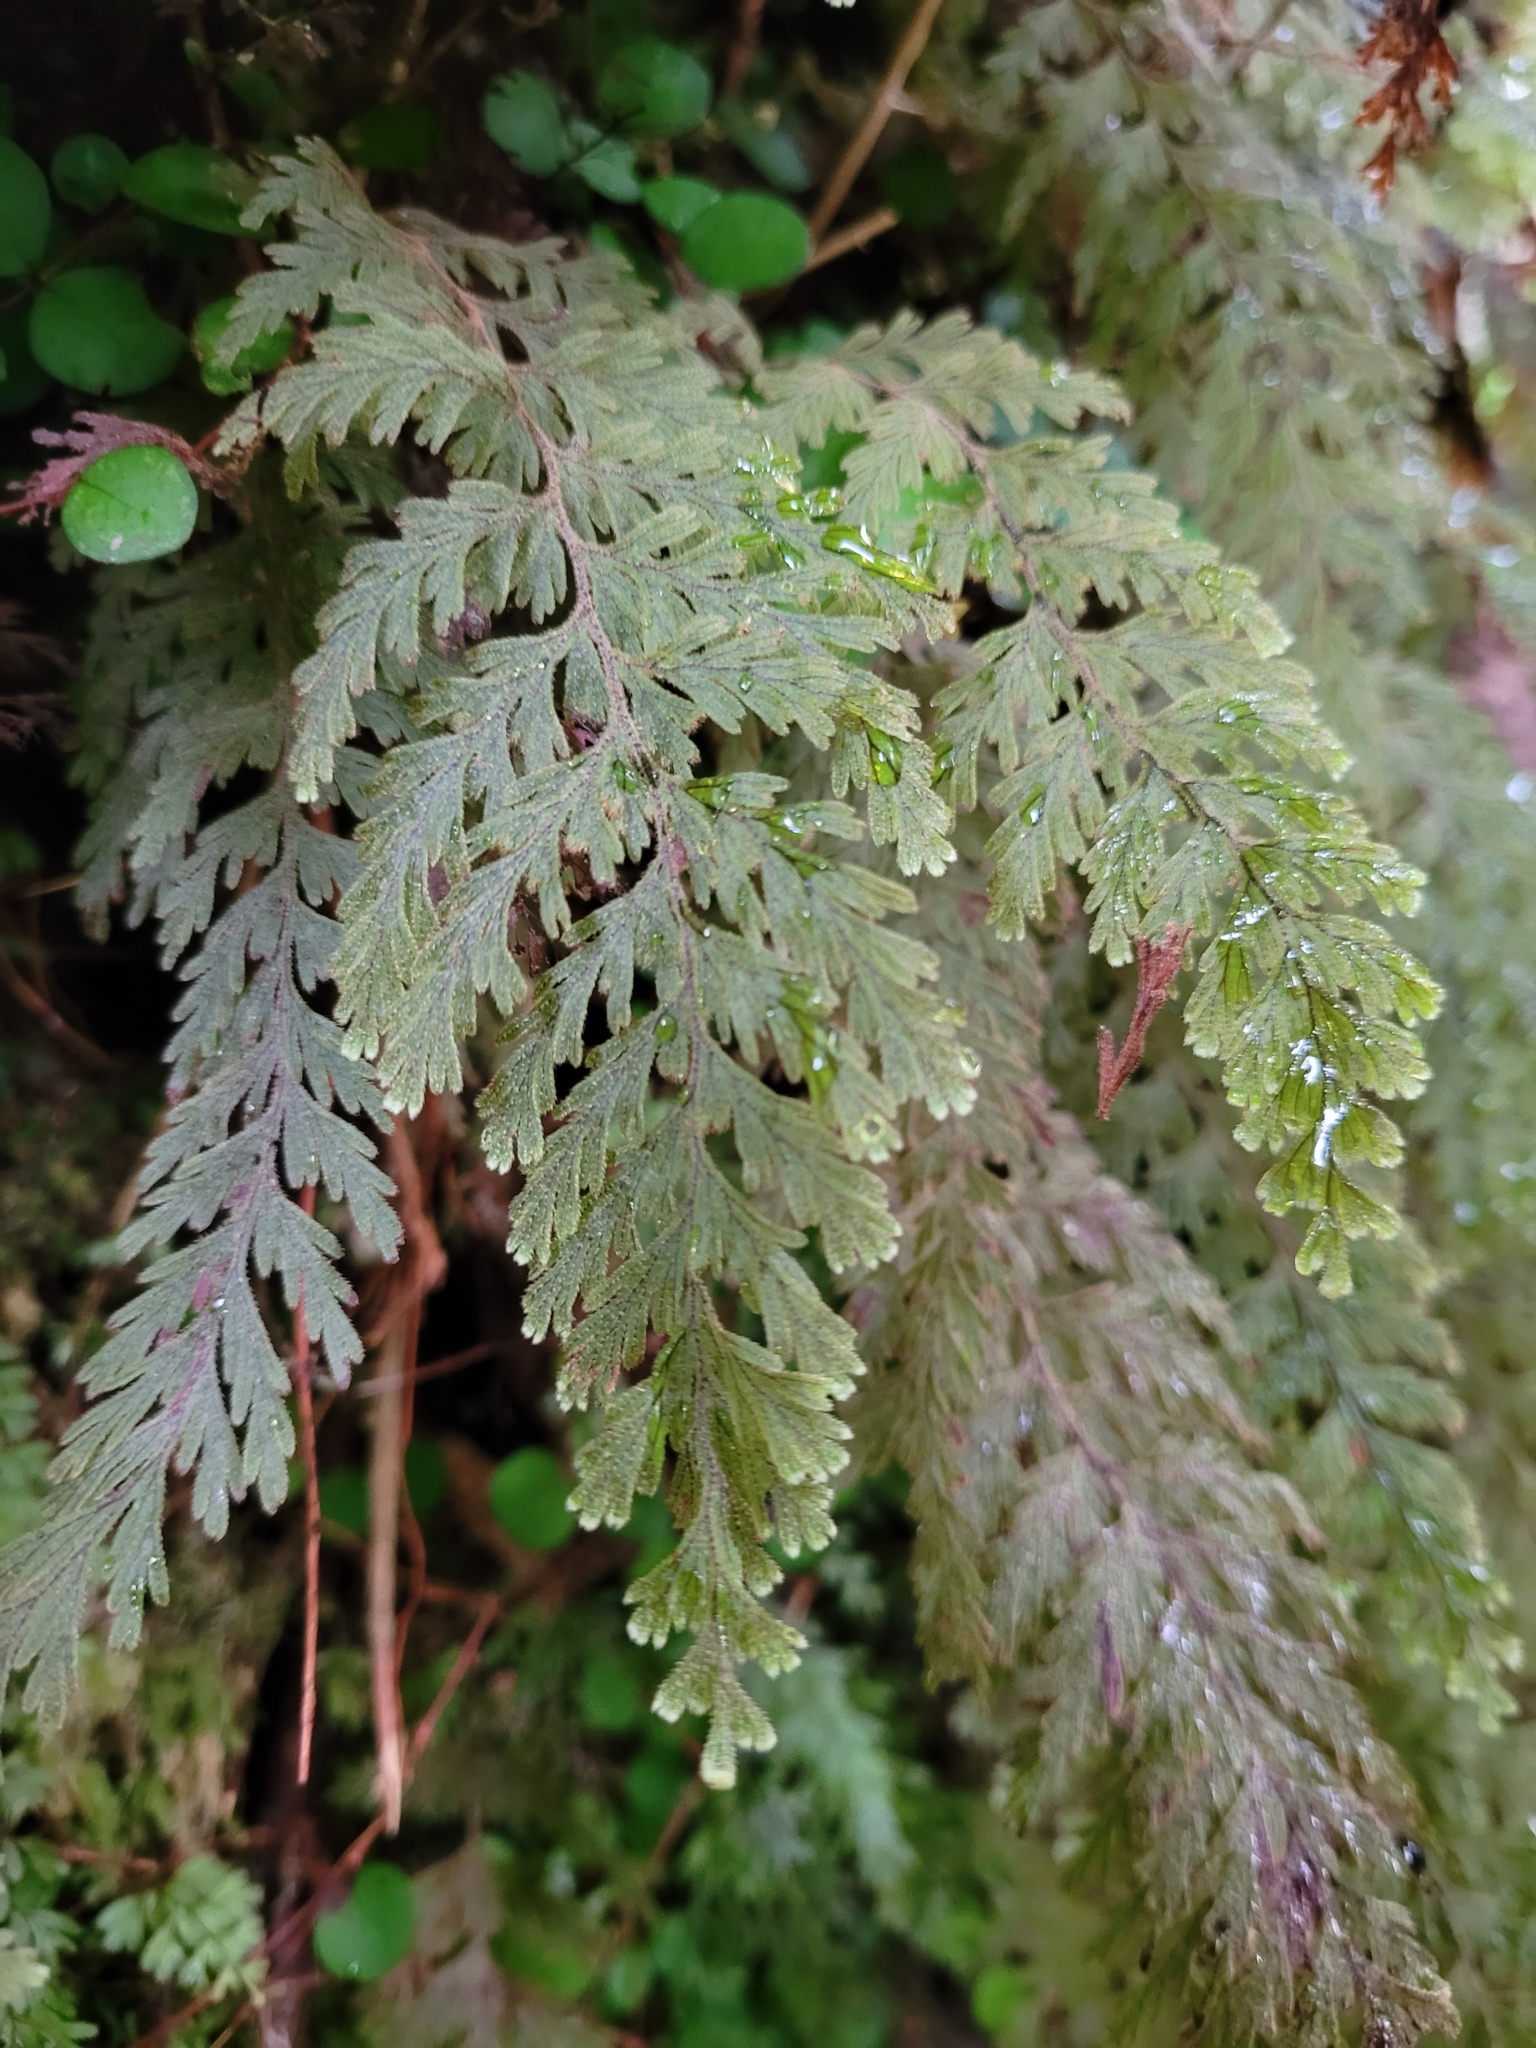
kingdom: Plantae
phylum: Tracheophyta
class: Polypodiopsida
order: Hymenophyllales
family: Hymenophyllaceae
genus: Hymenophyllum
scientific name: Hymenophyllum frankliniae
